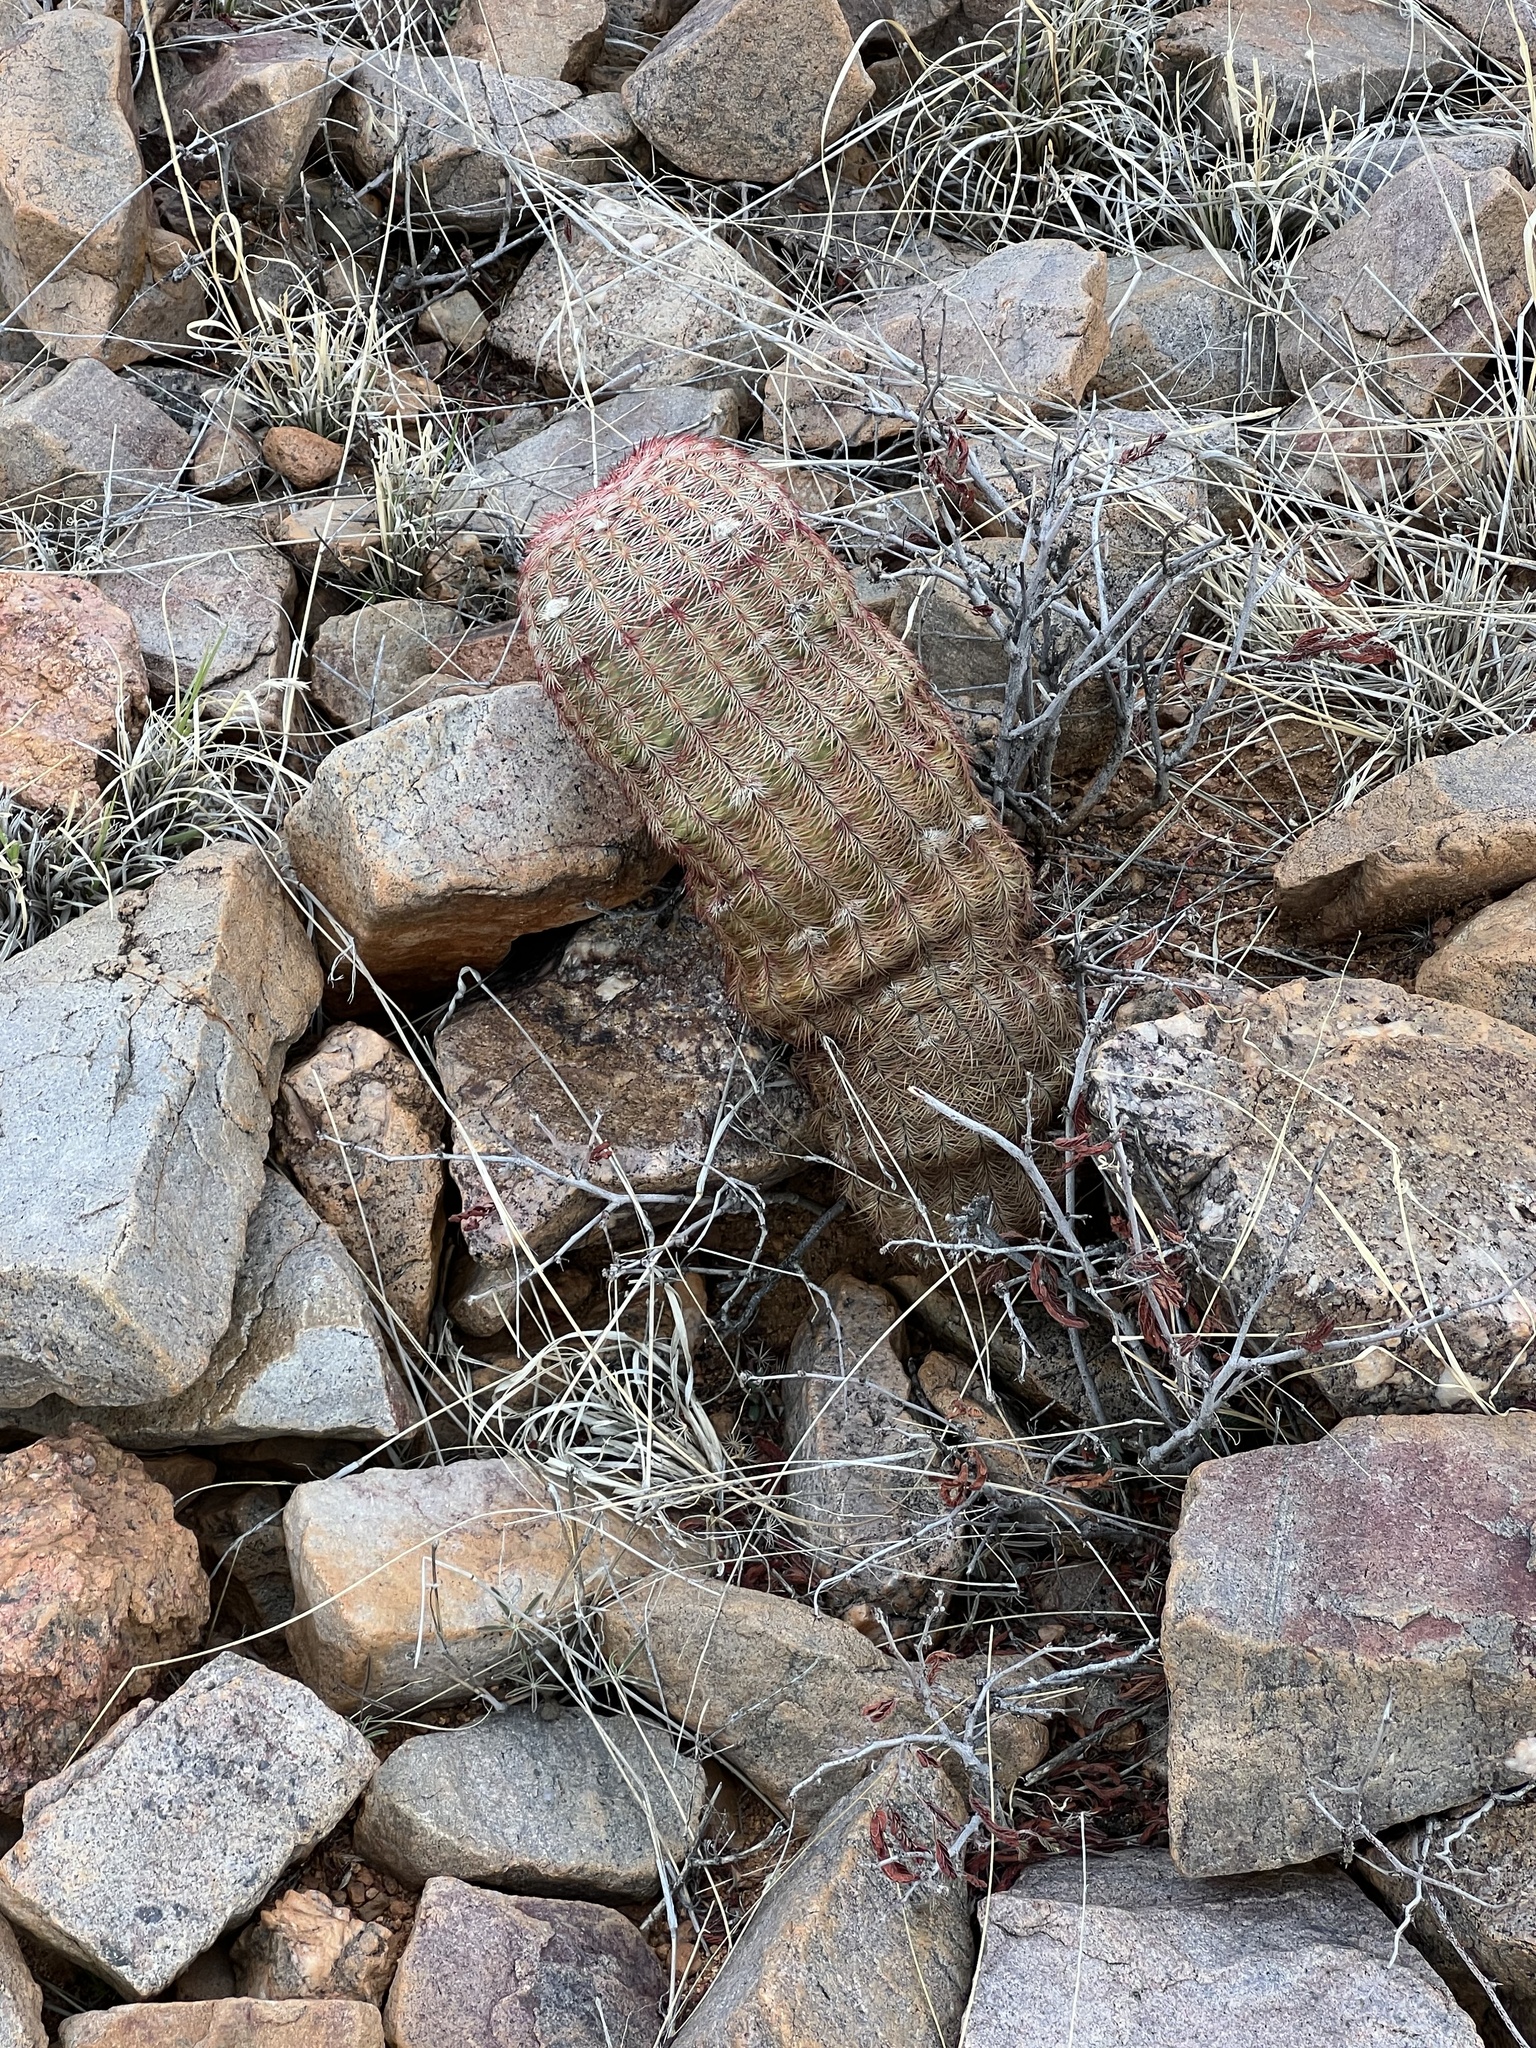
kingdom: Plantae
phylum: Tracheophyta
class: Magnoliopsida
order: Caryophyllales
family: Cactaceae
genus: Echinocereus
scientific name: Echinocereus rigidissimus
